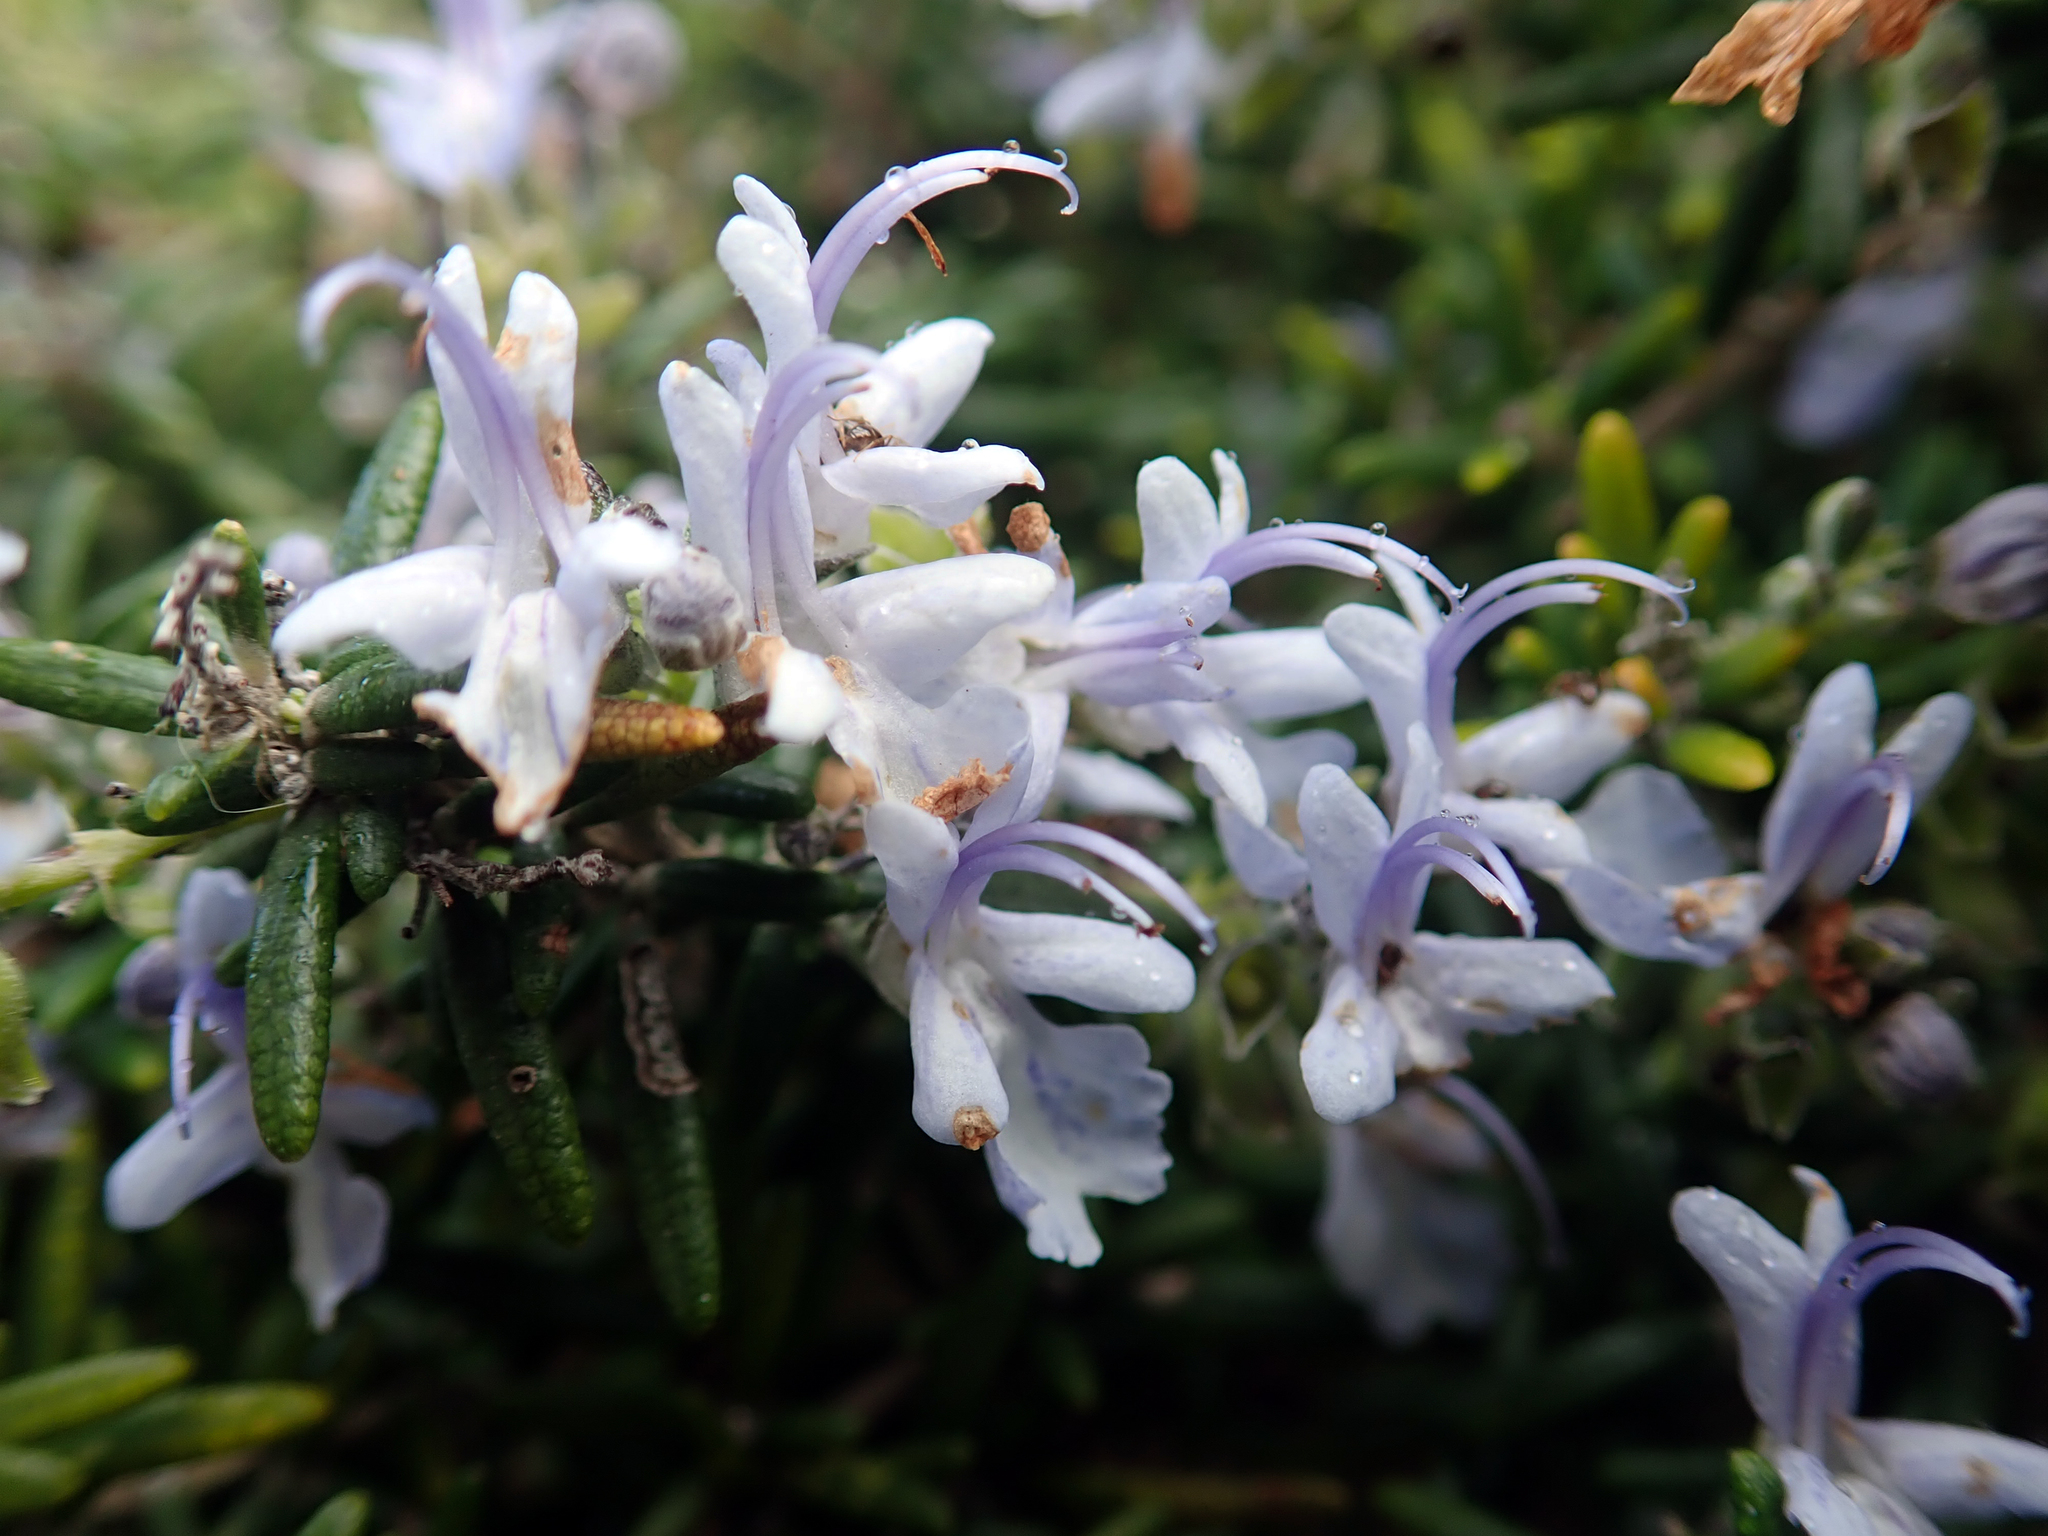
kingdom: Plantae
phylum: Tracheophyta
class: Magnoliopsida
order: Lamiales
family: Lamiaceae
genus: Salvia
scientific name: Salvia rosmarinus
